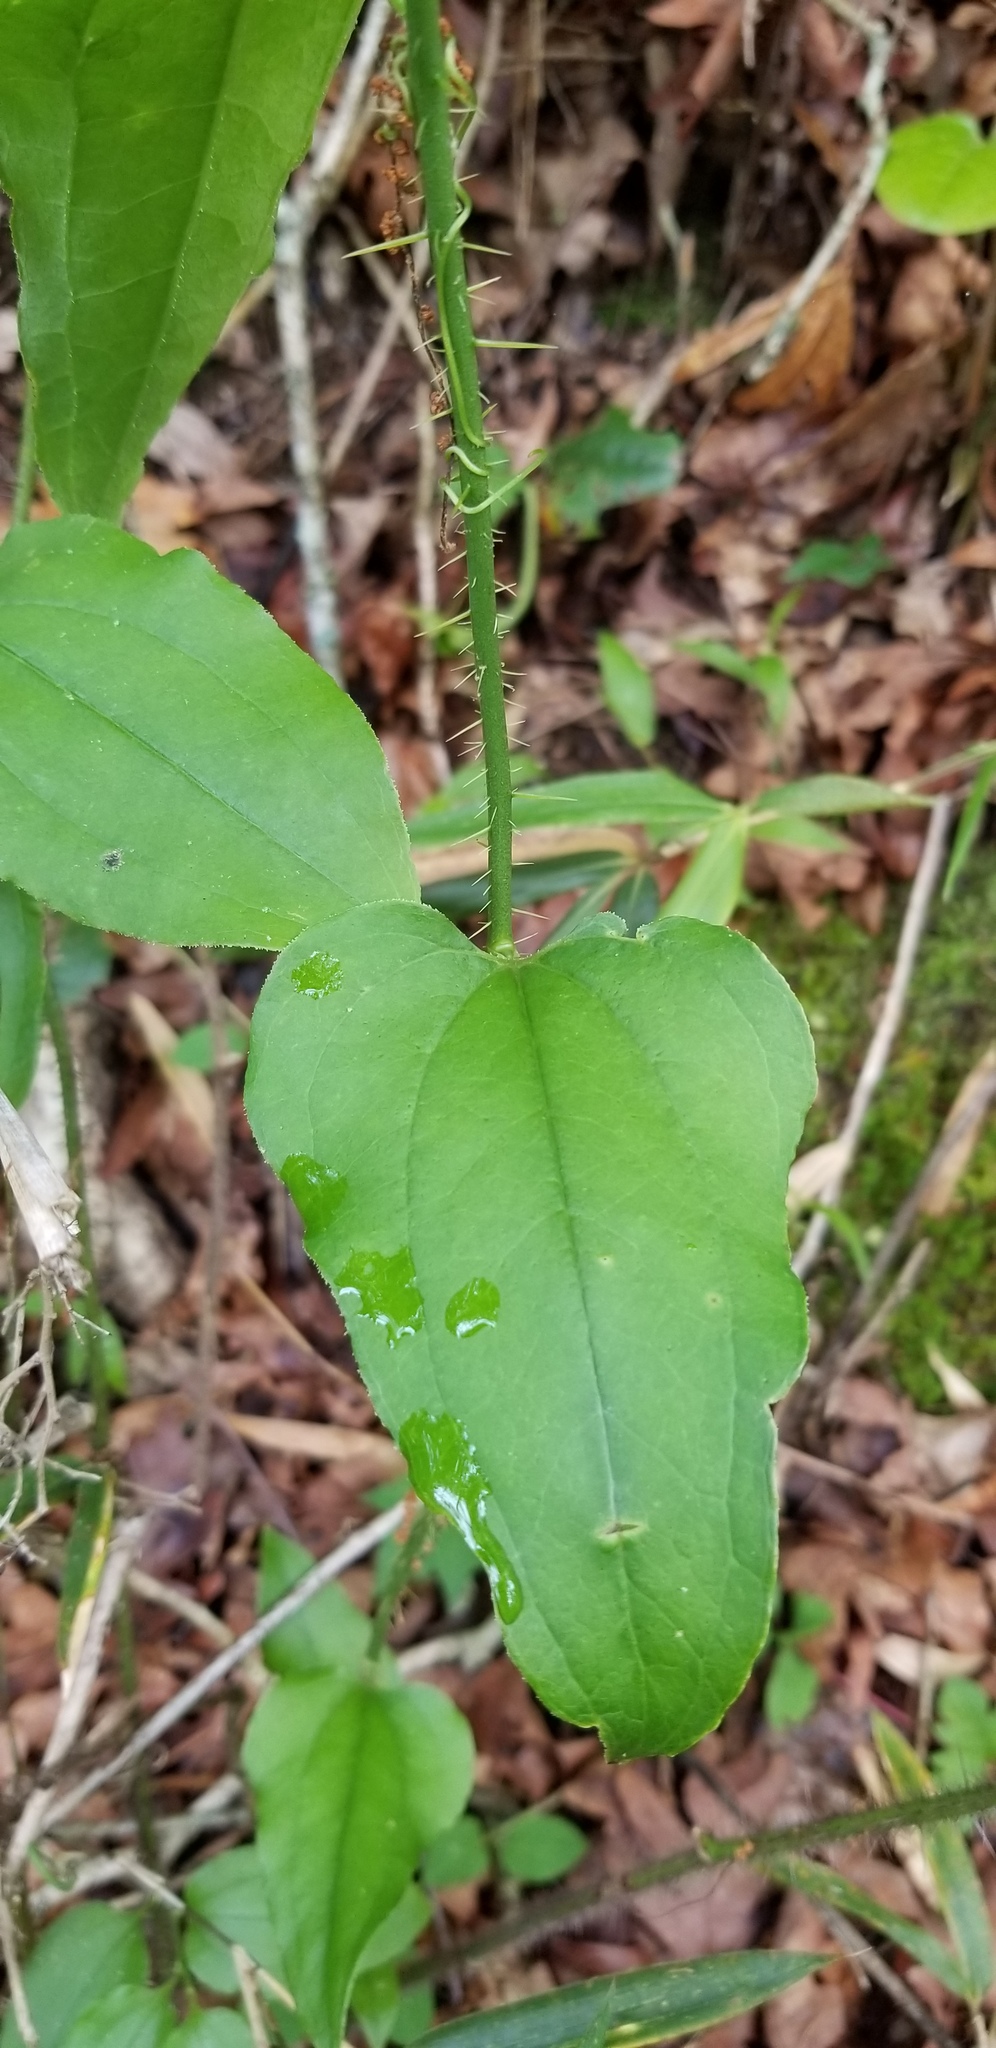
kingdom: Plantae
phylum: Tracheophyta
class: Liliopsida
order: Liliales
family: Smilacaceae
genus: Smilax
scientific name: Smilax tamnoides
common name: Hellfetter
